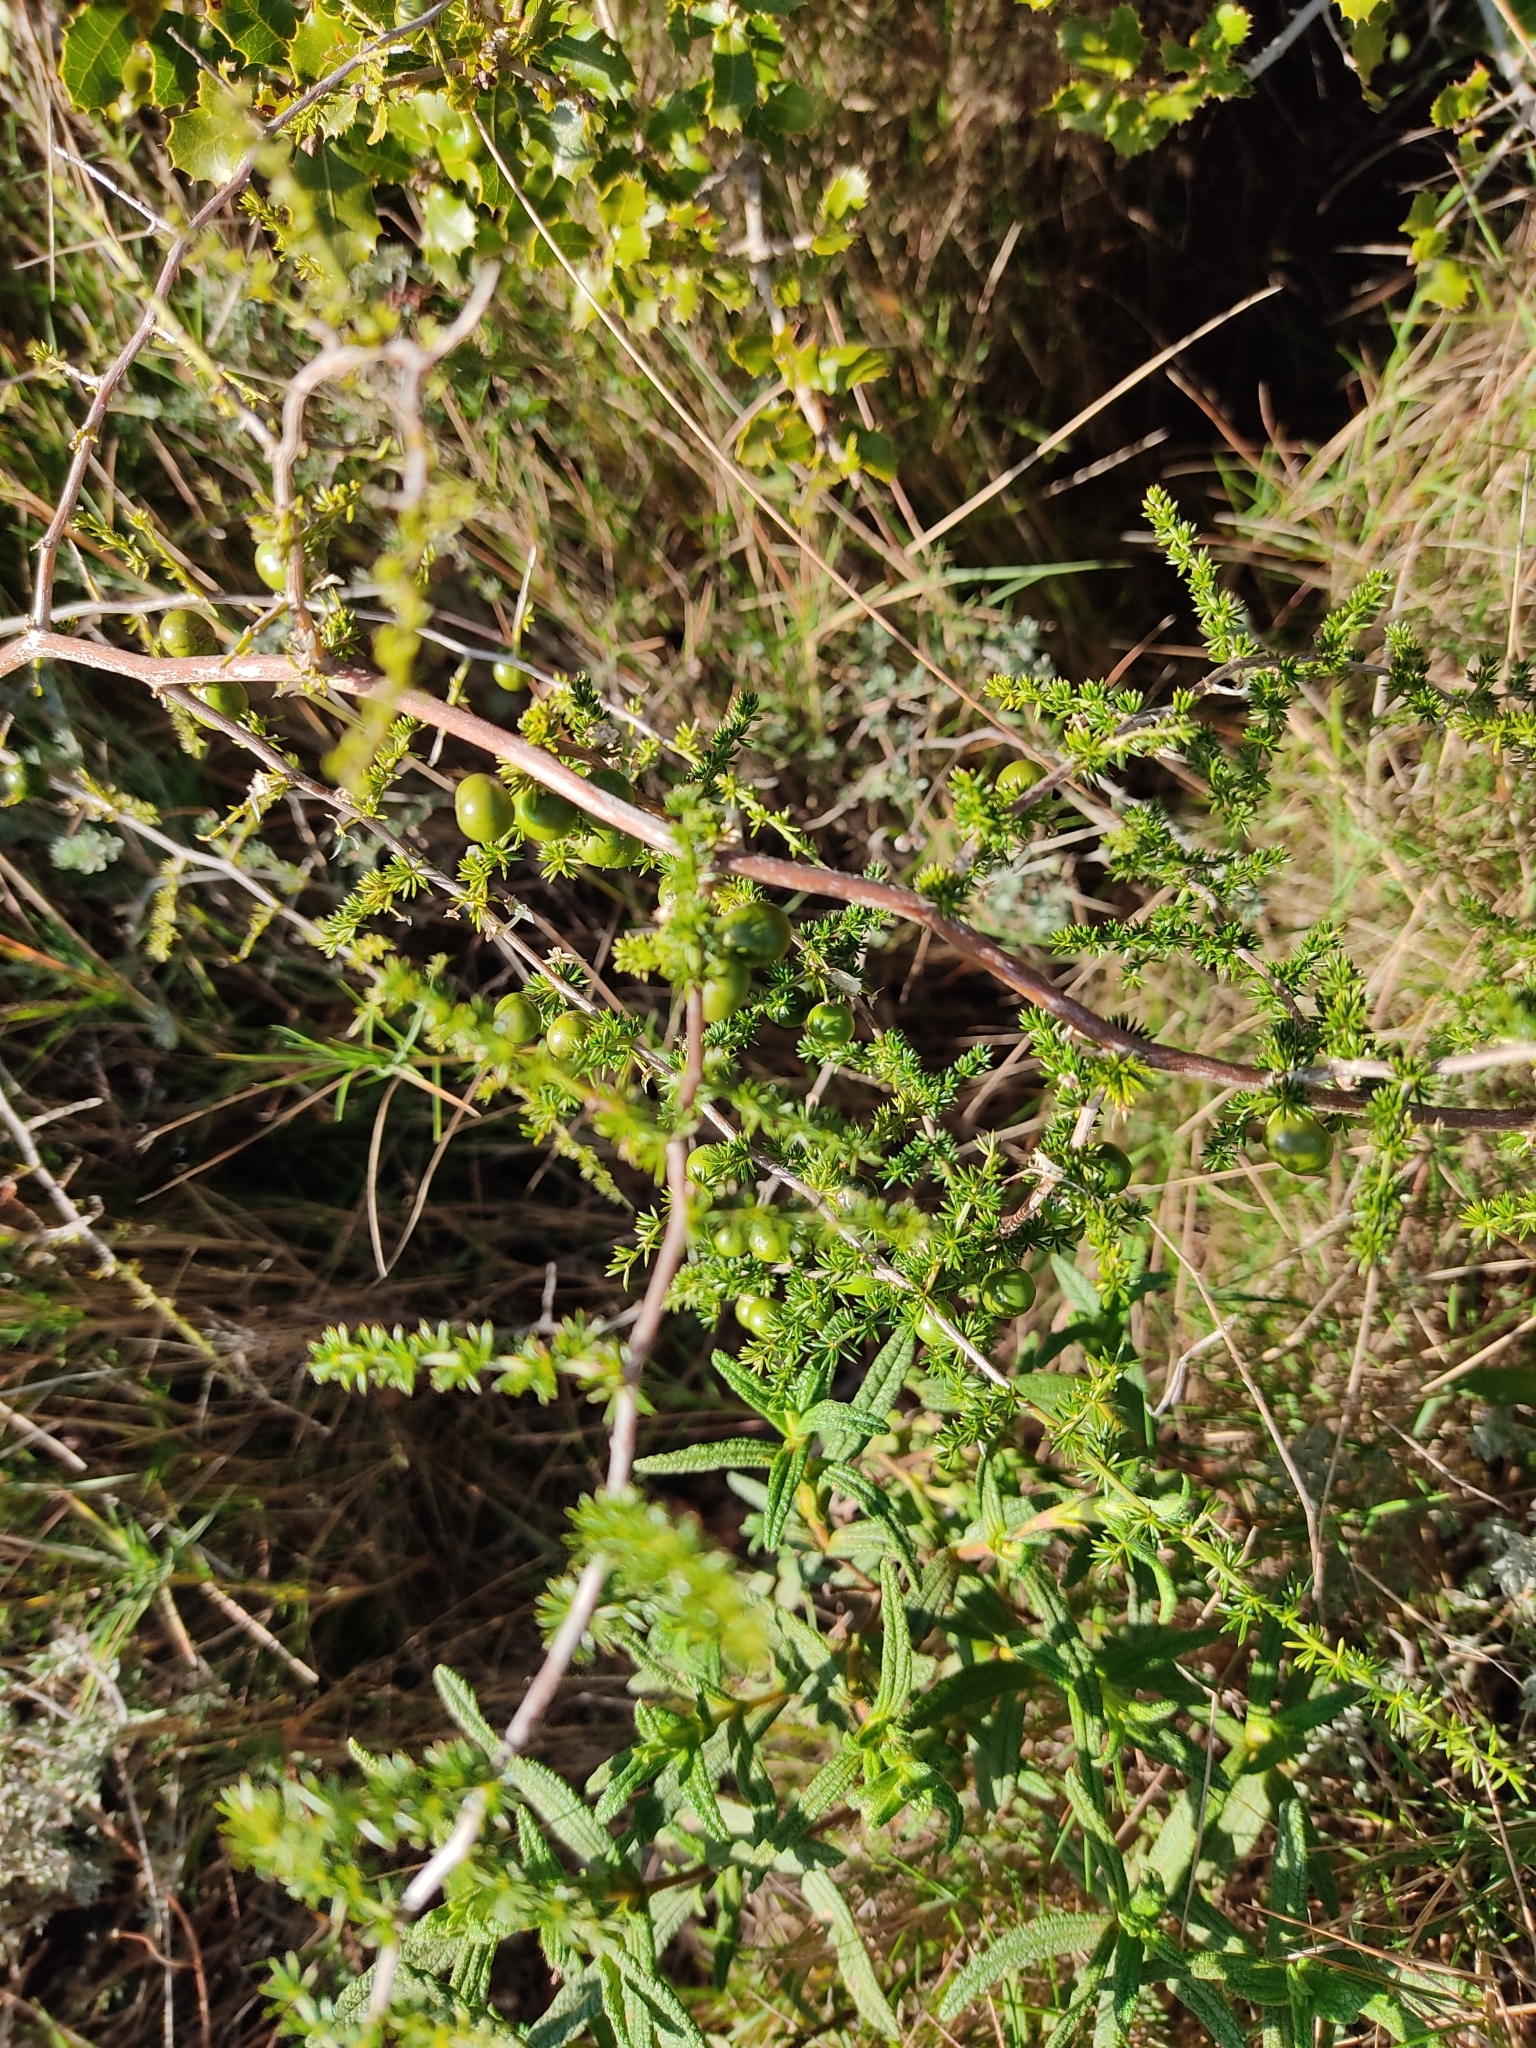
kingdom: Plantae
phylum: Tracheophyta
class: Liliopsida
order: Asparagales
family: Asparagaceae
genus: Asparagus
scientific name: Asparagus acutifolius
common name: Wild asparagus
